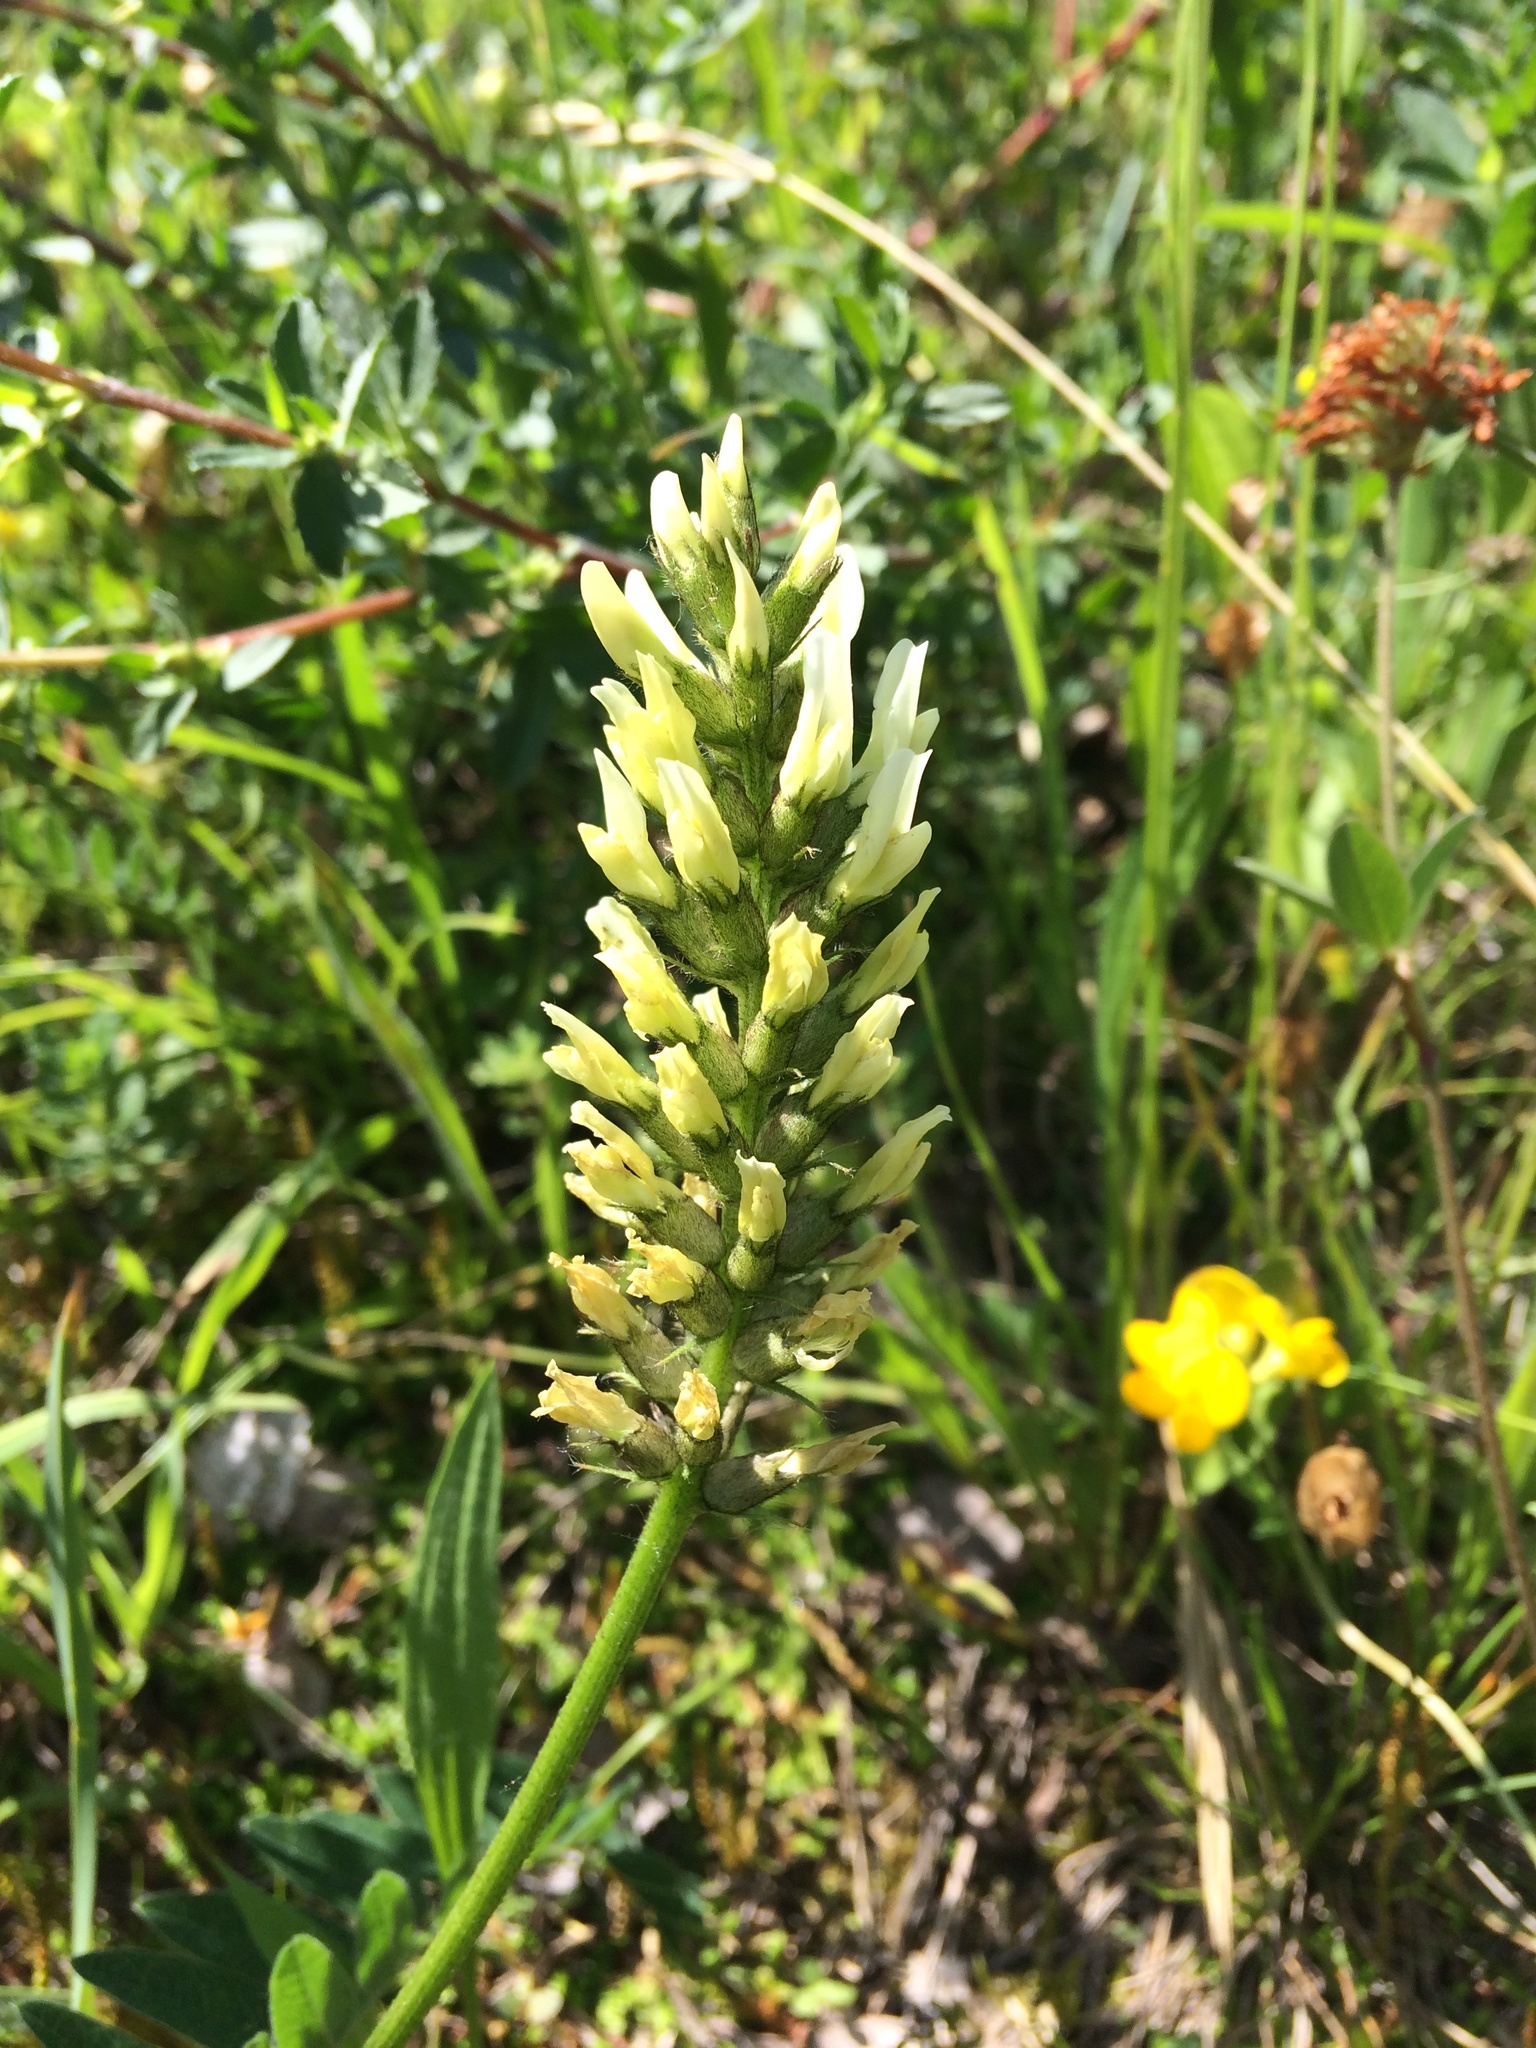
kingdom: Plantae
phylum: Tracheophyta
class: Magnoliopsida
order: Fabales
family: Fabaceae
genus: Astragalus
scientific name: Astragalus cicer
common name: Chick-pea milk-vetch
